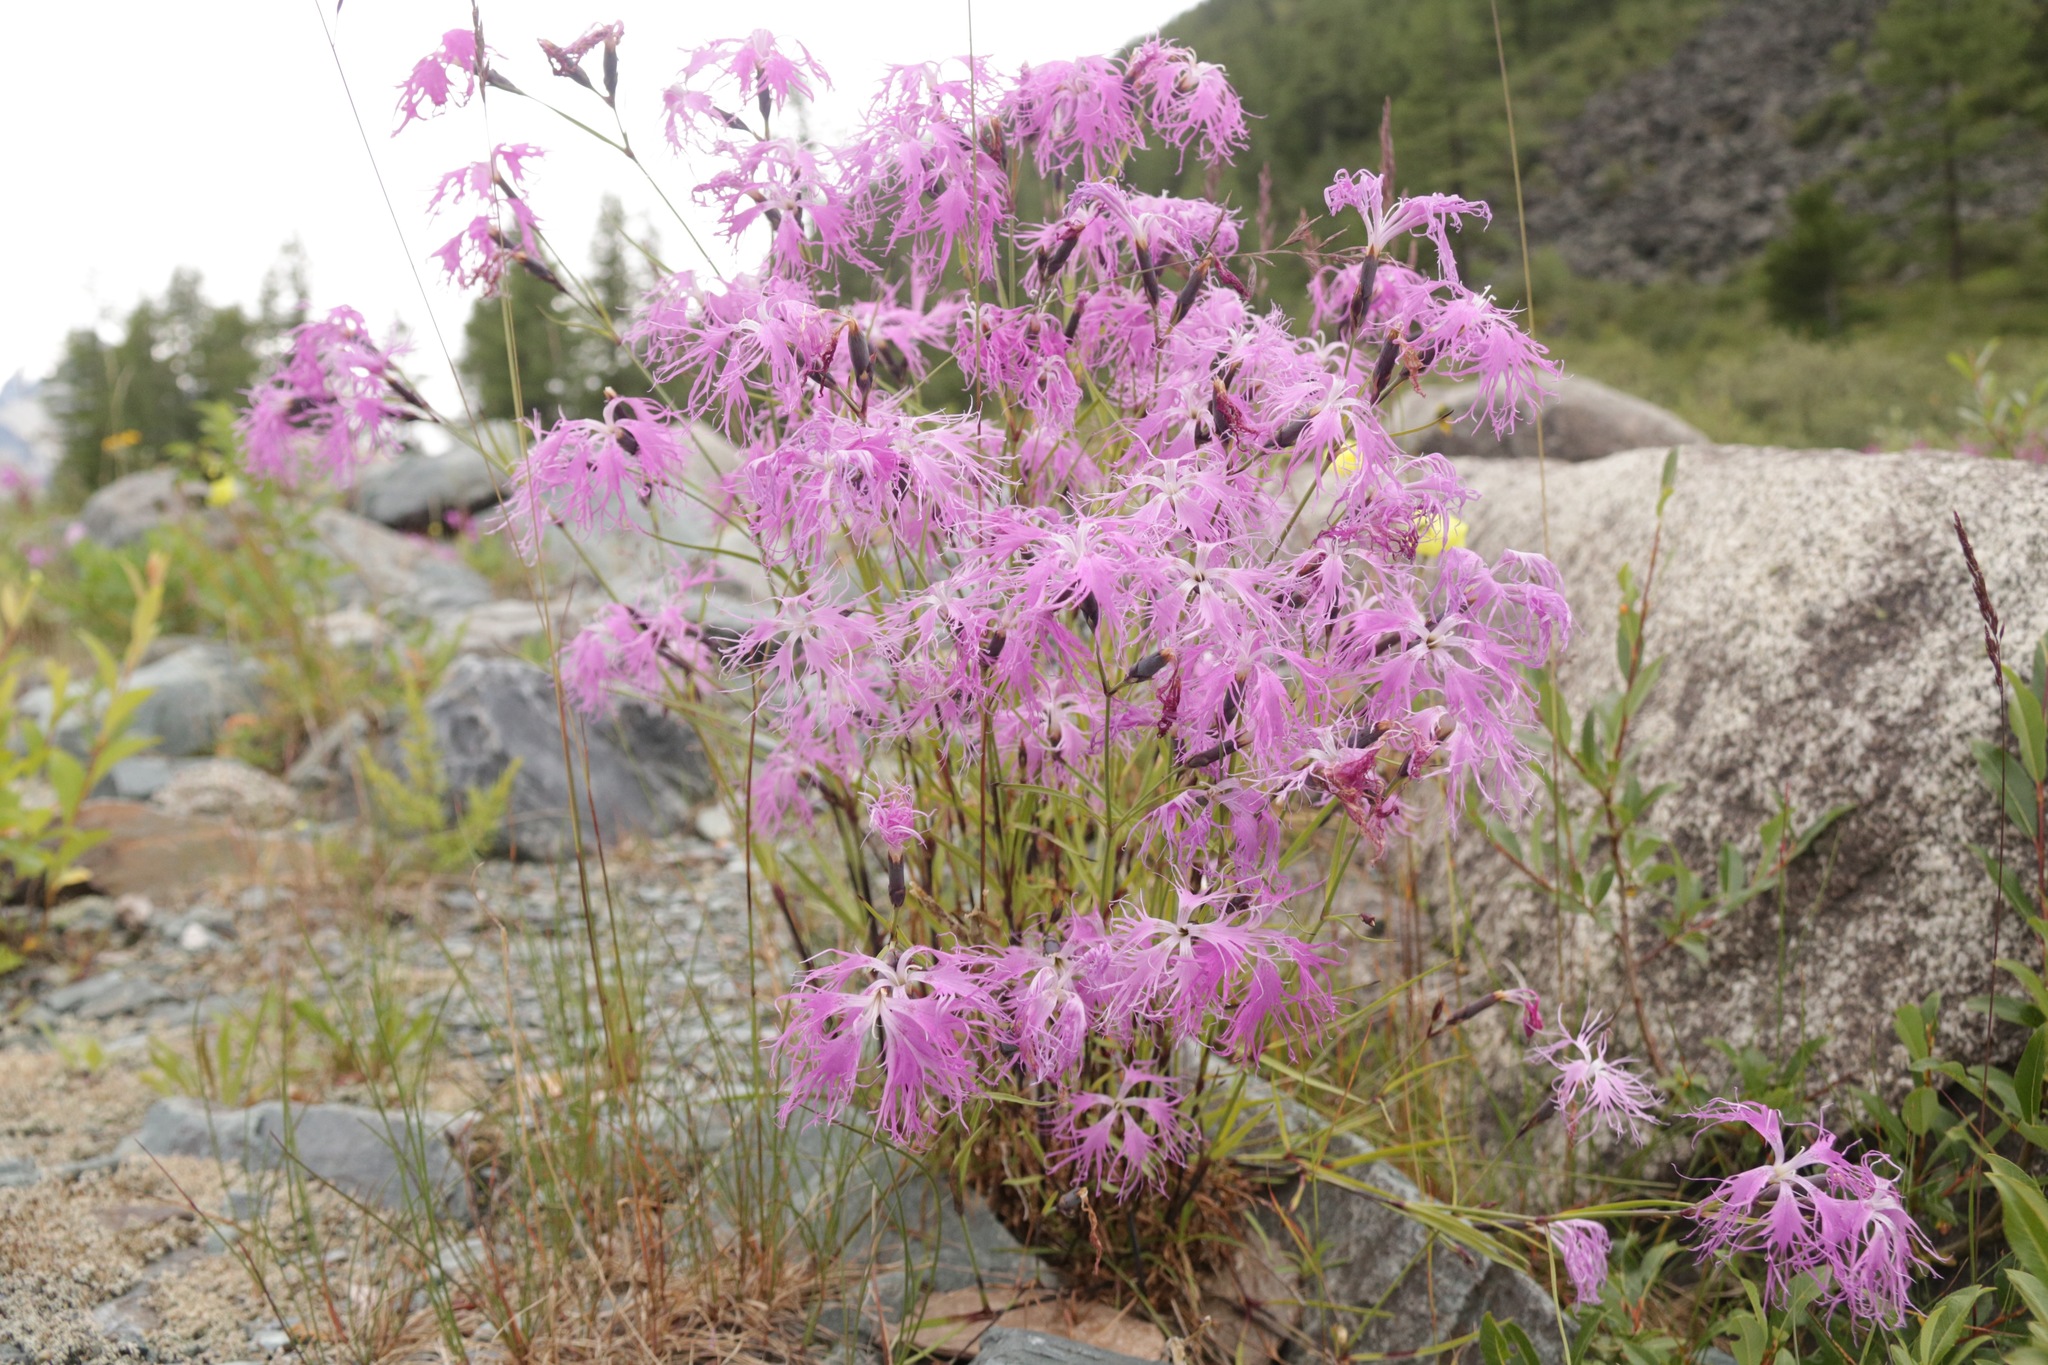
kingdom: Plantae
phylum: Tracheophyta
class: Magnoliopsida
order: Caryophyllales
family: Caryophyllaceae
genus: Dianthus
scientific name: Dianthus superbus
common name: Fringed pink
